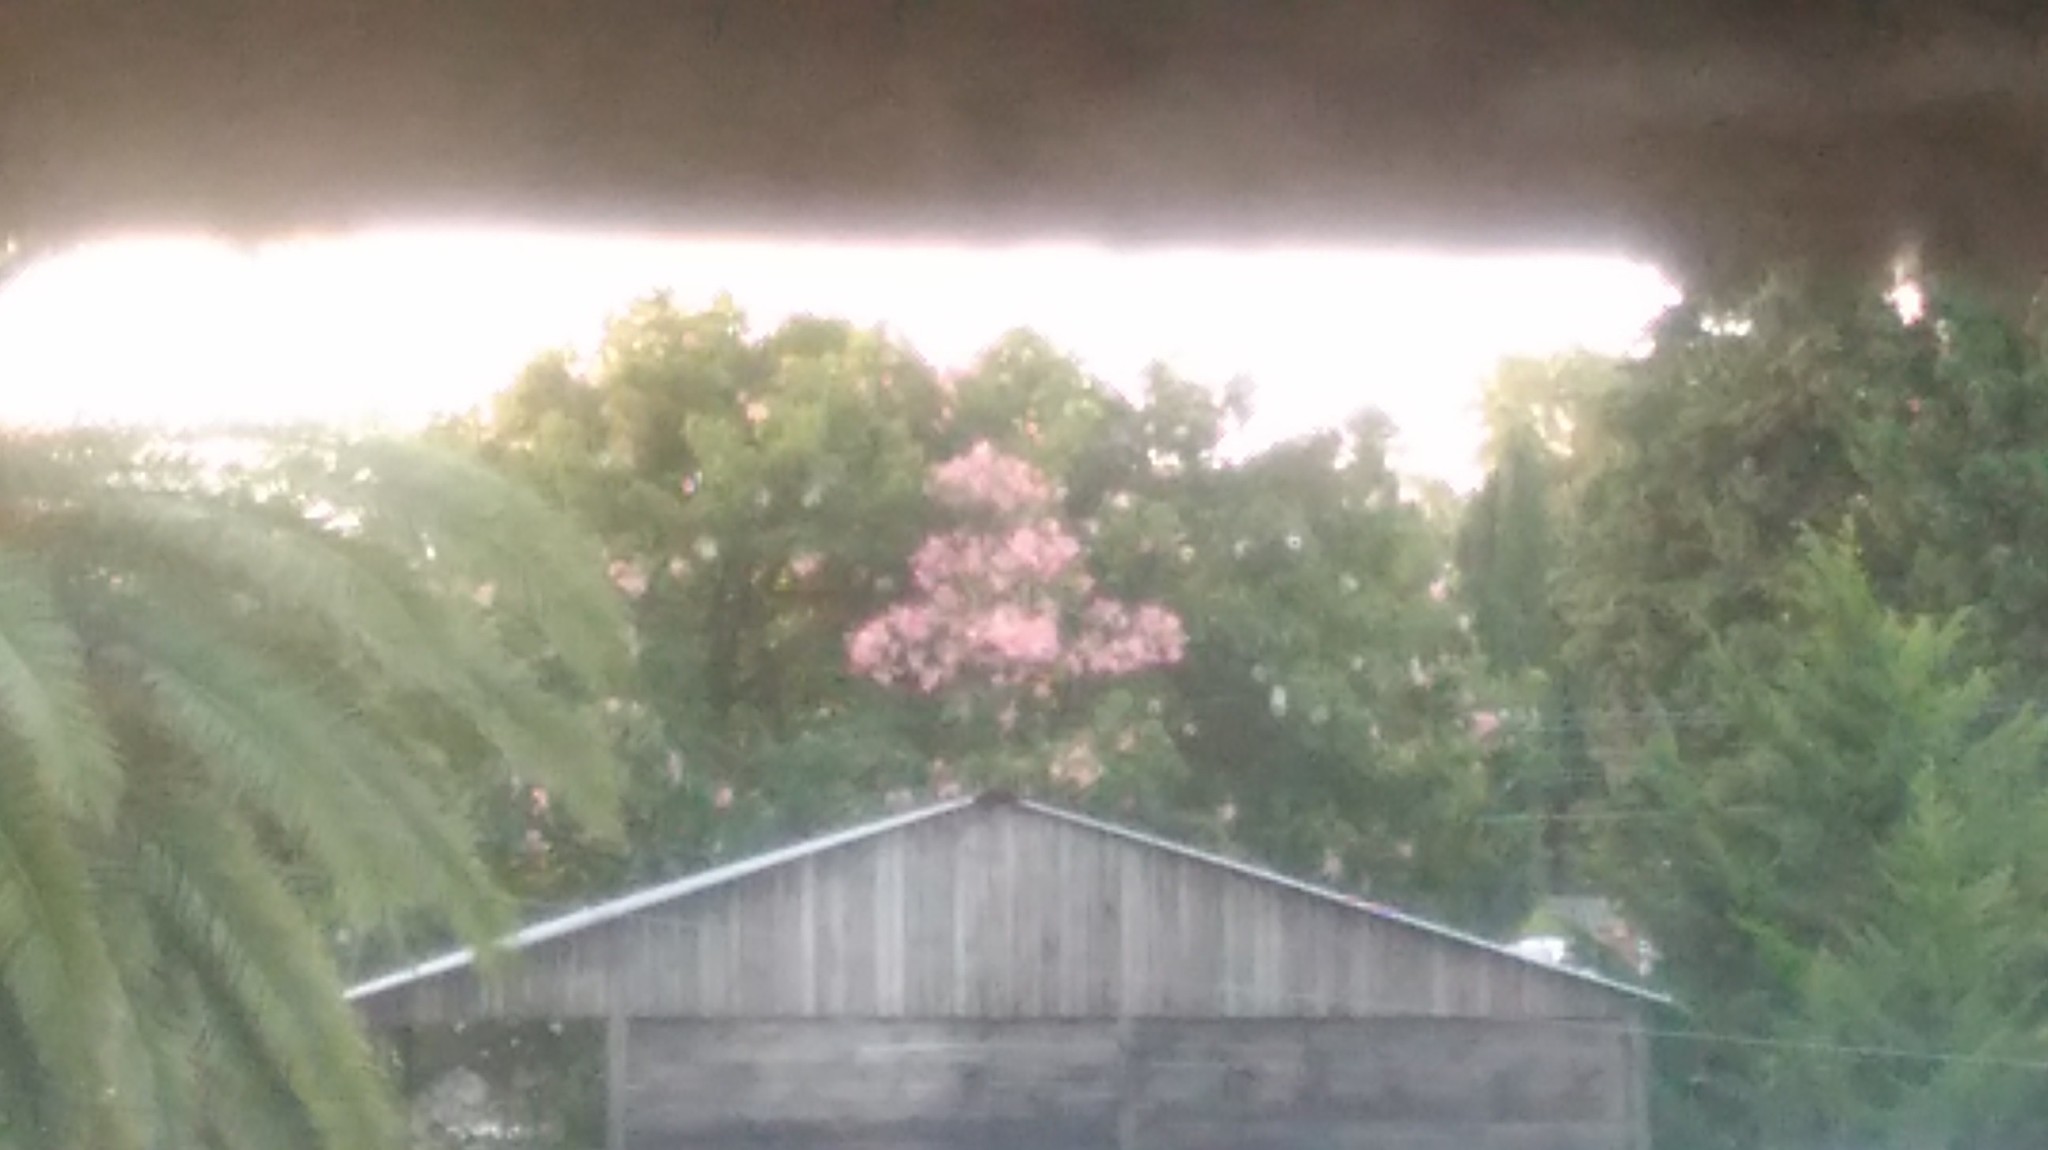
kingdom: Plantae
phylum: Tracheophyta
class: Magnoliopsida
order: Malvales
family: Malvaceae
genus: Ceiba
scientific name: Ceiba speciosa
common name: Silk-floss tree
